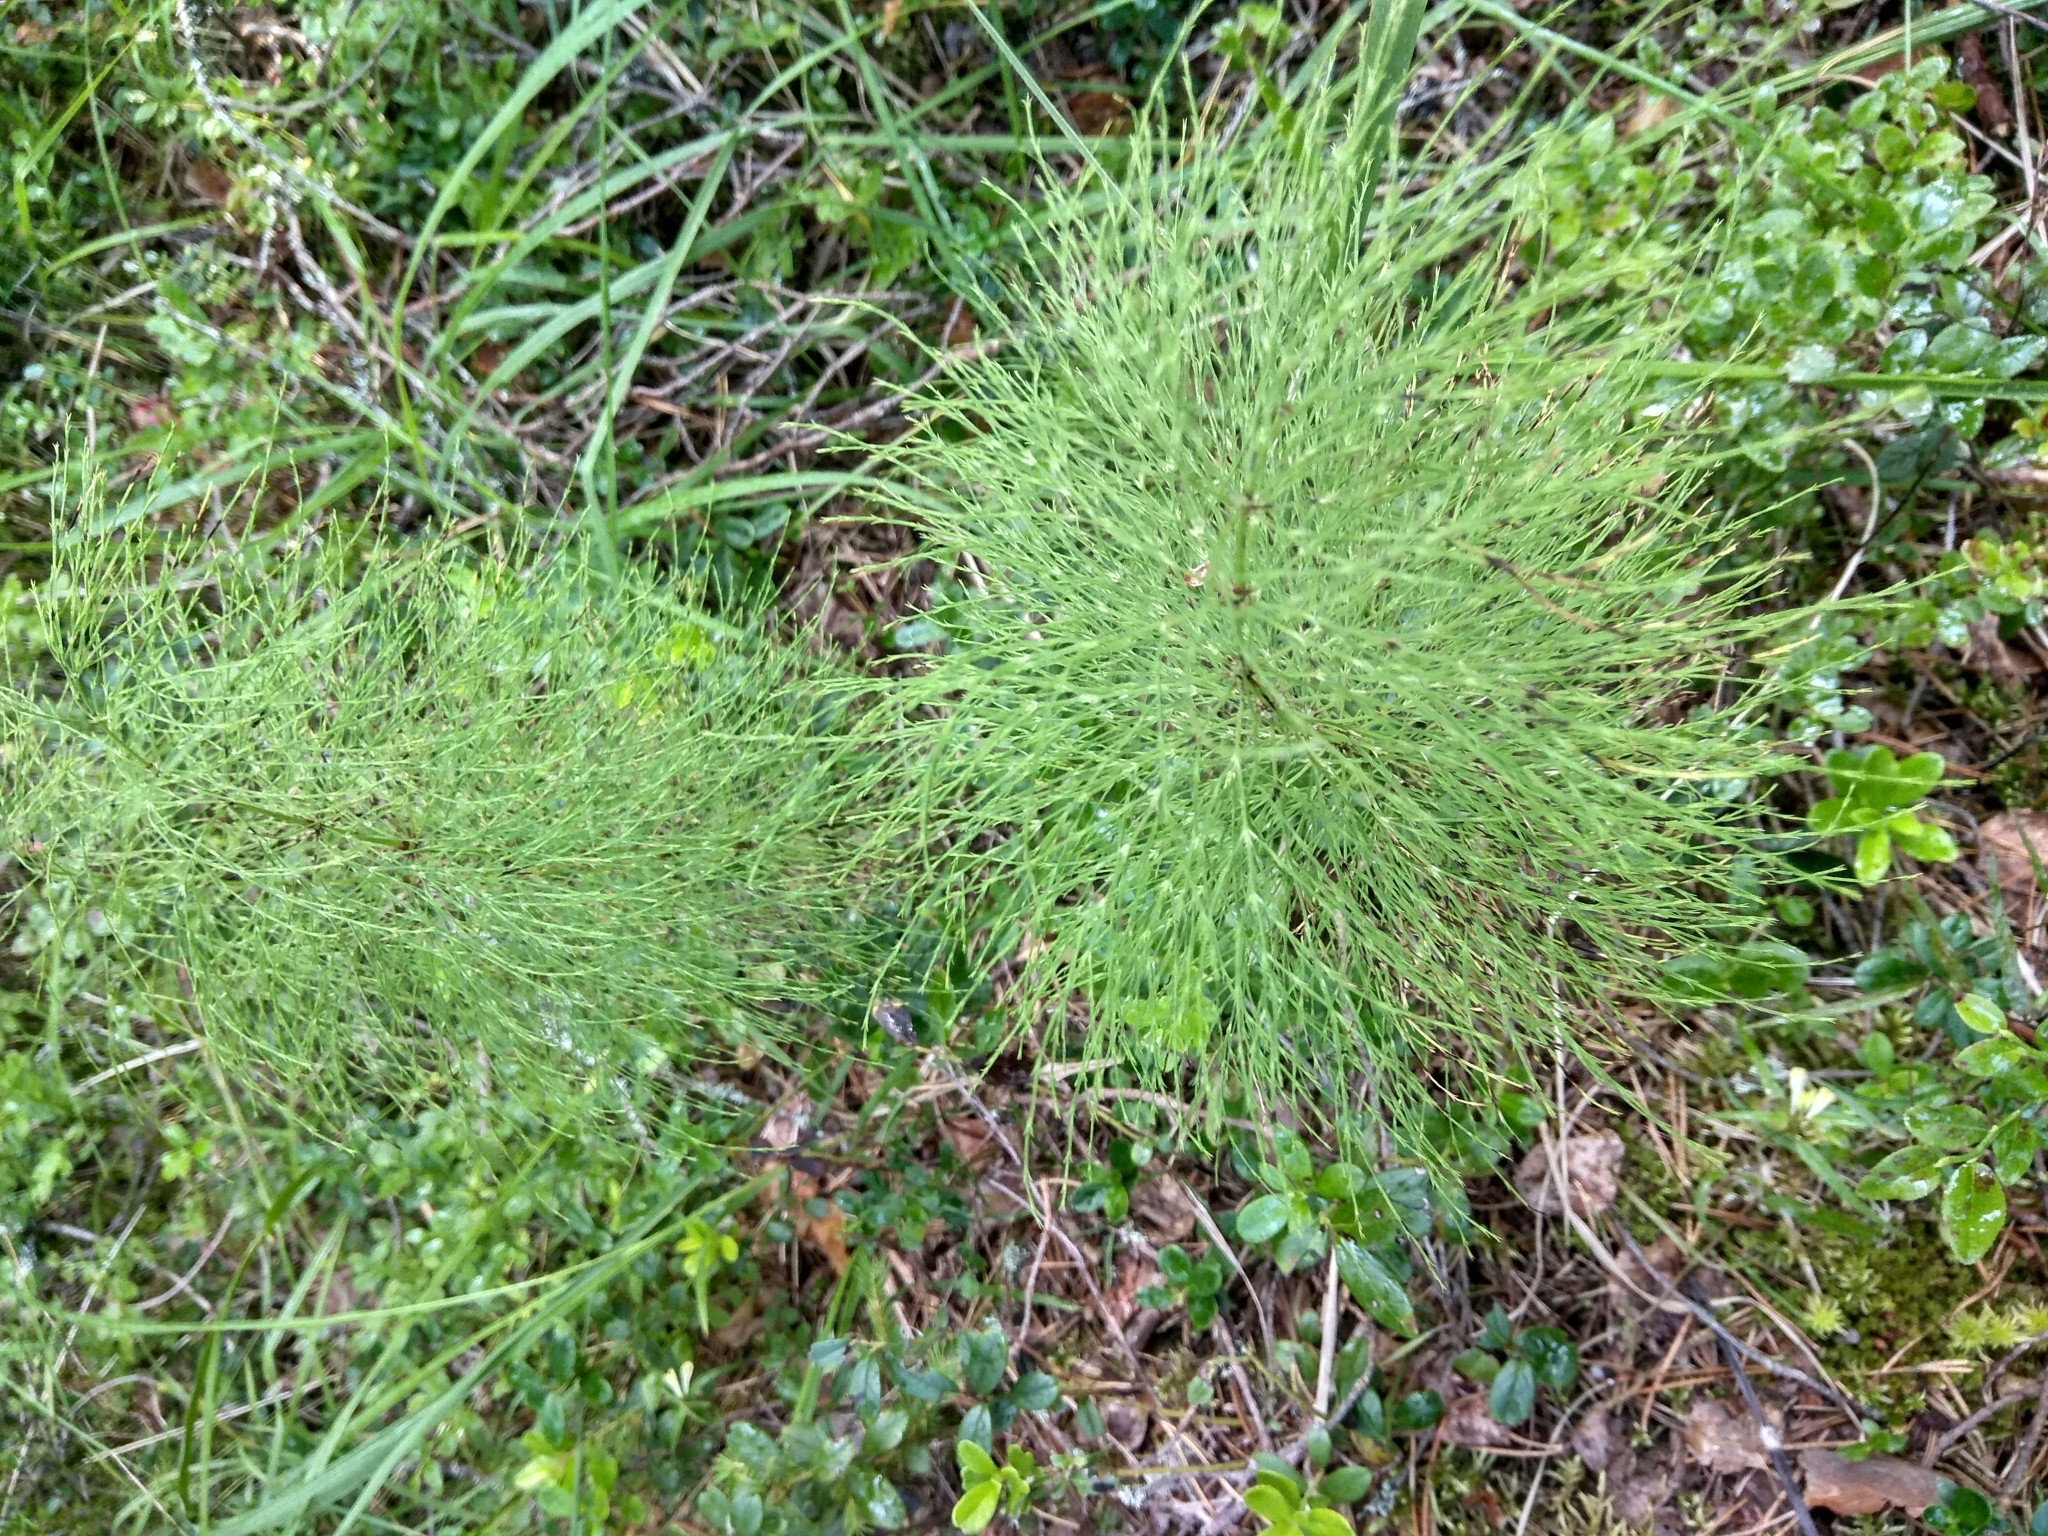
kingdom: Plantae
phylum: Tracheophyta
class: Polypodiopsida
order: Equisetales
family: Equisetaceae
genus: Equisetum
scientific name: Equisetum sylvaticum
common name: Wood horsetail
